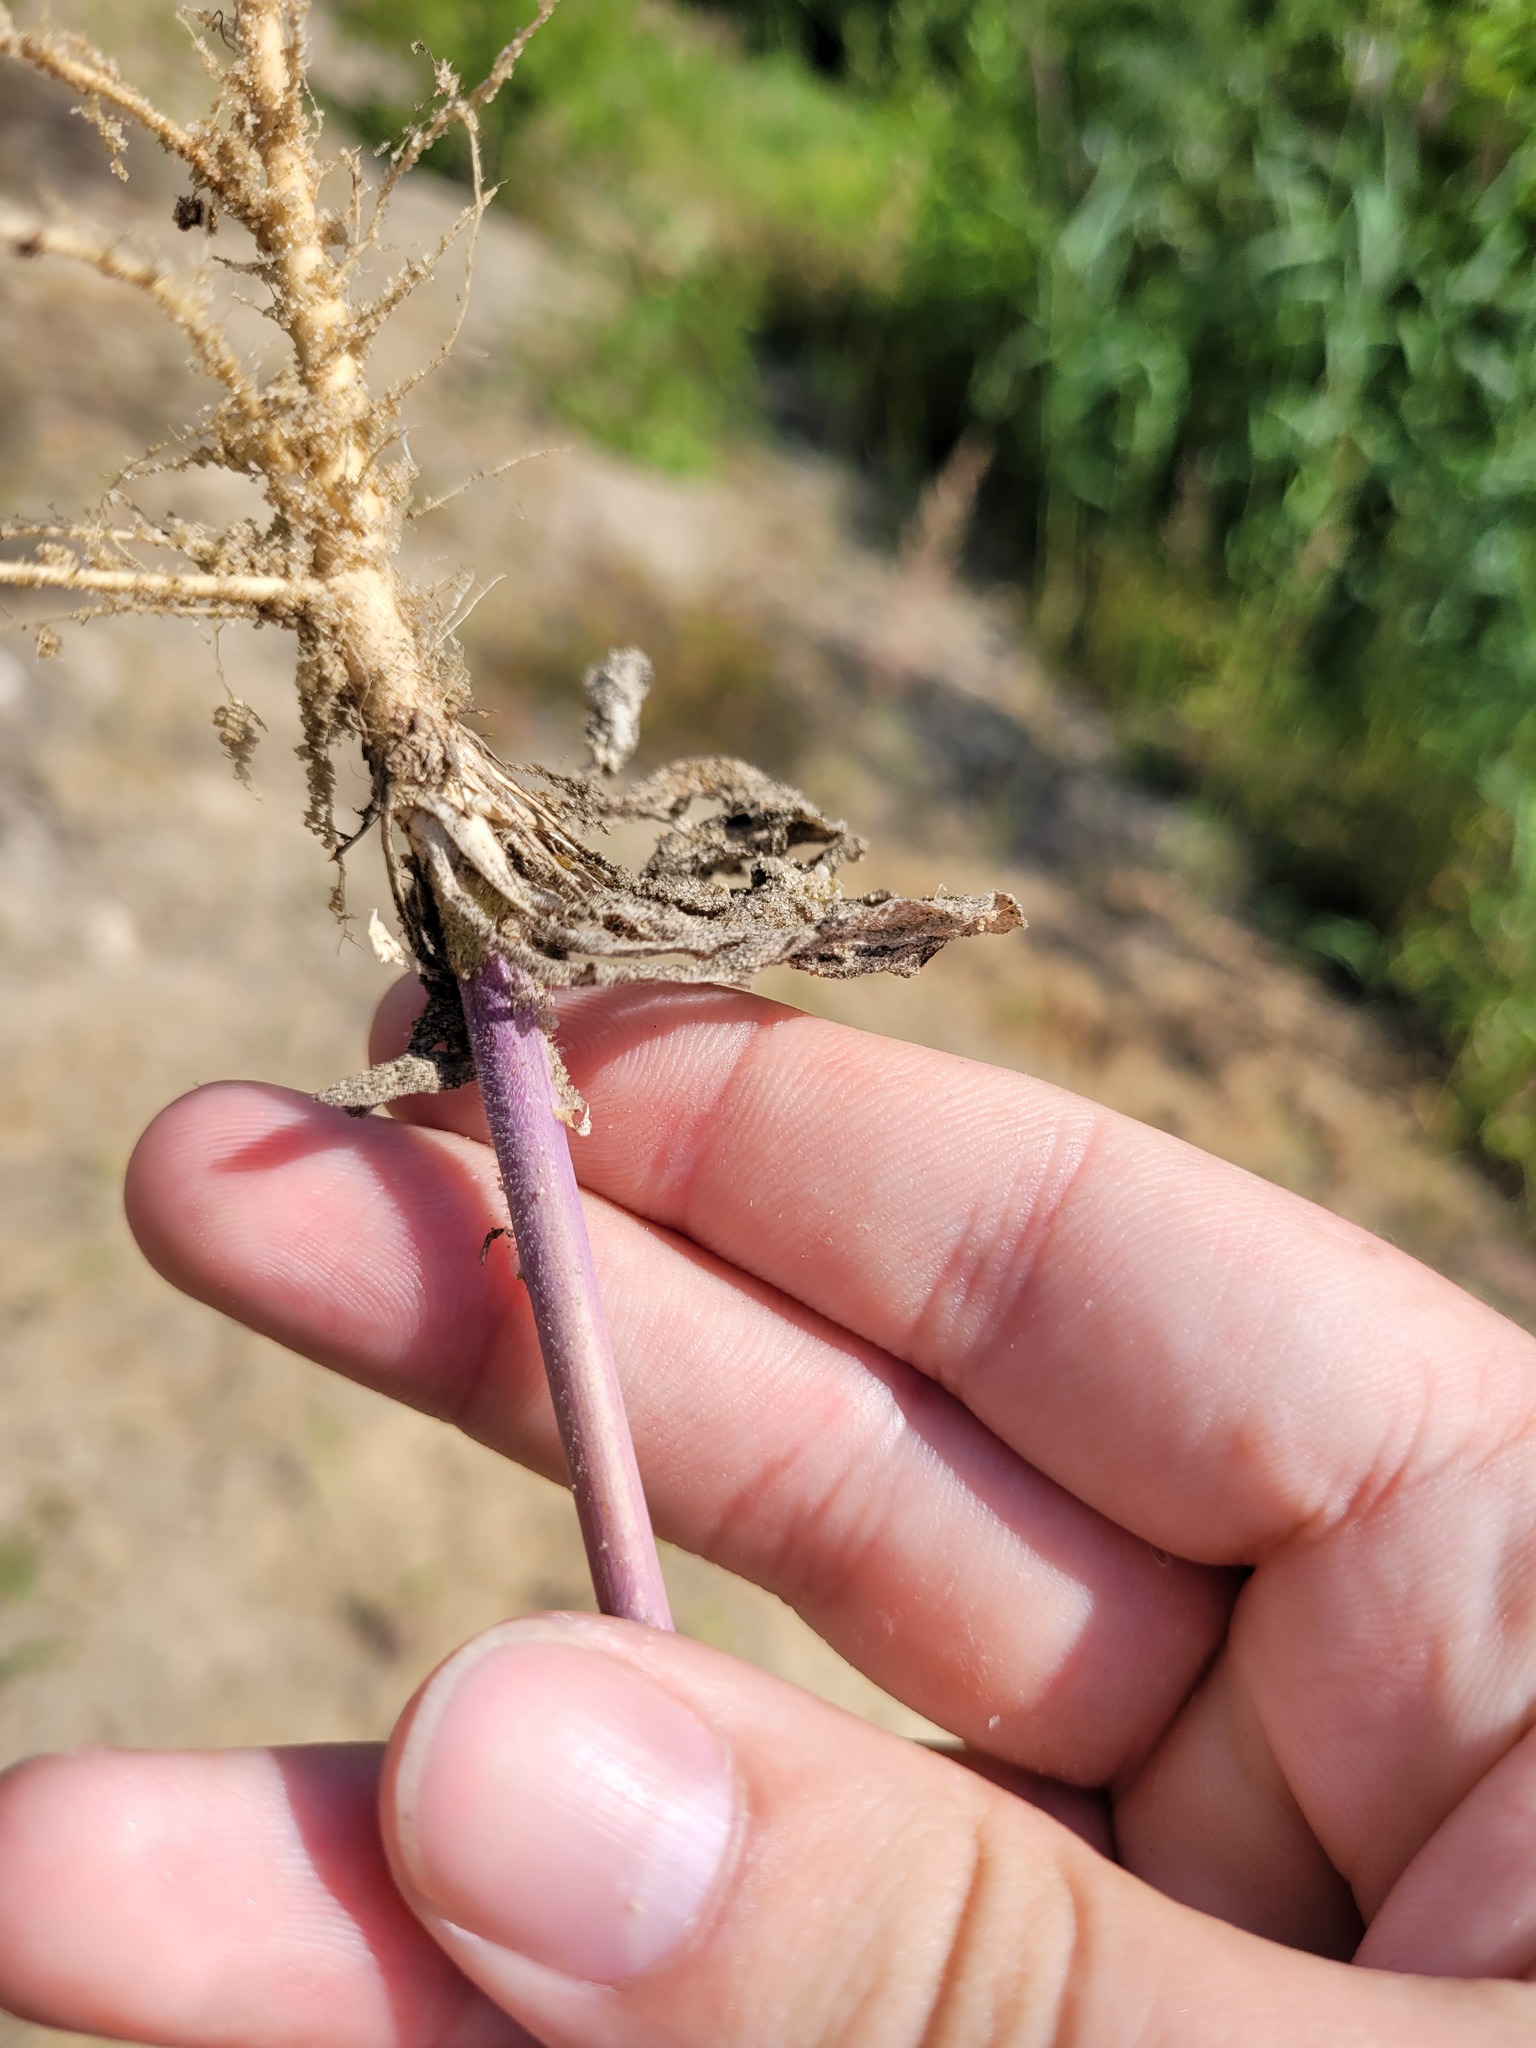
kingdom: Plantae
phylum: Tracheophyta
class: Magnoliopsida
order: Brassicales
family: Brassicaceae
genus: Turritis
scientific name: Turritis glabra
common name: Tower rockcress
